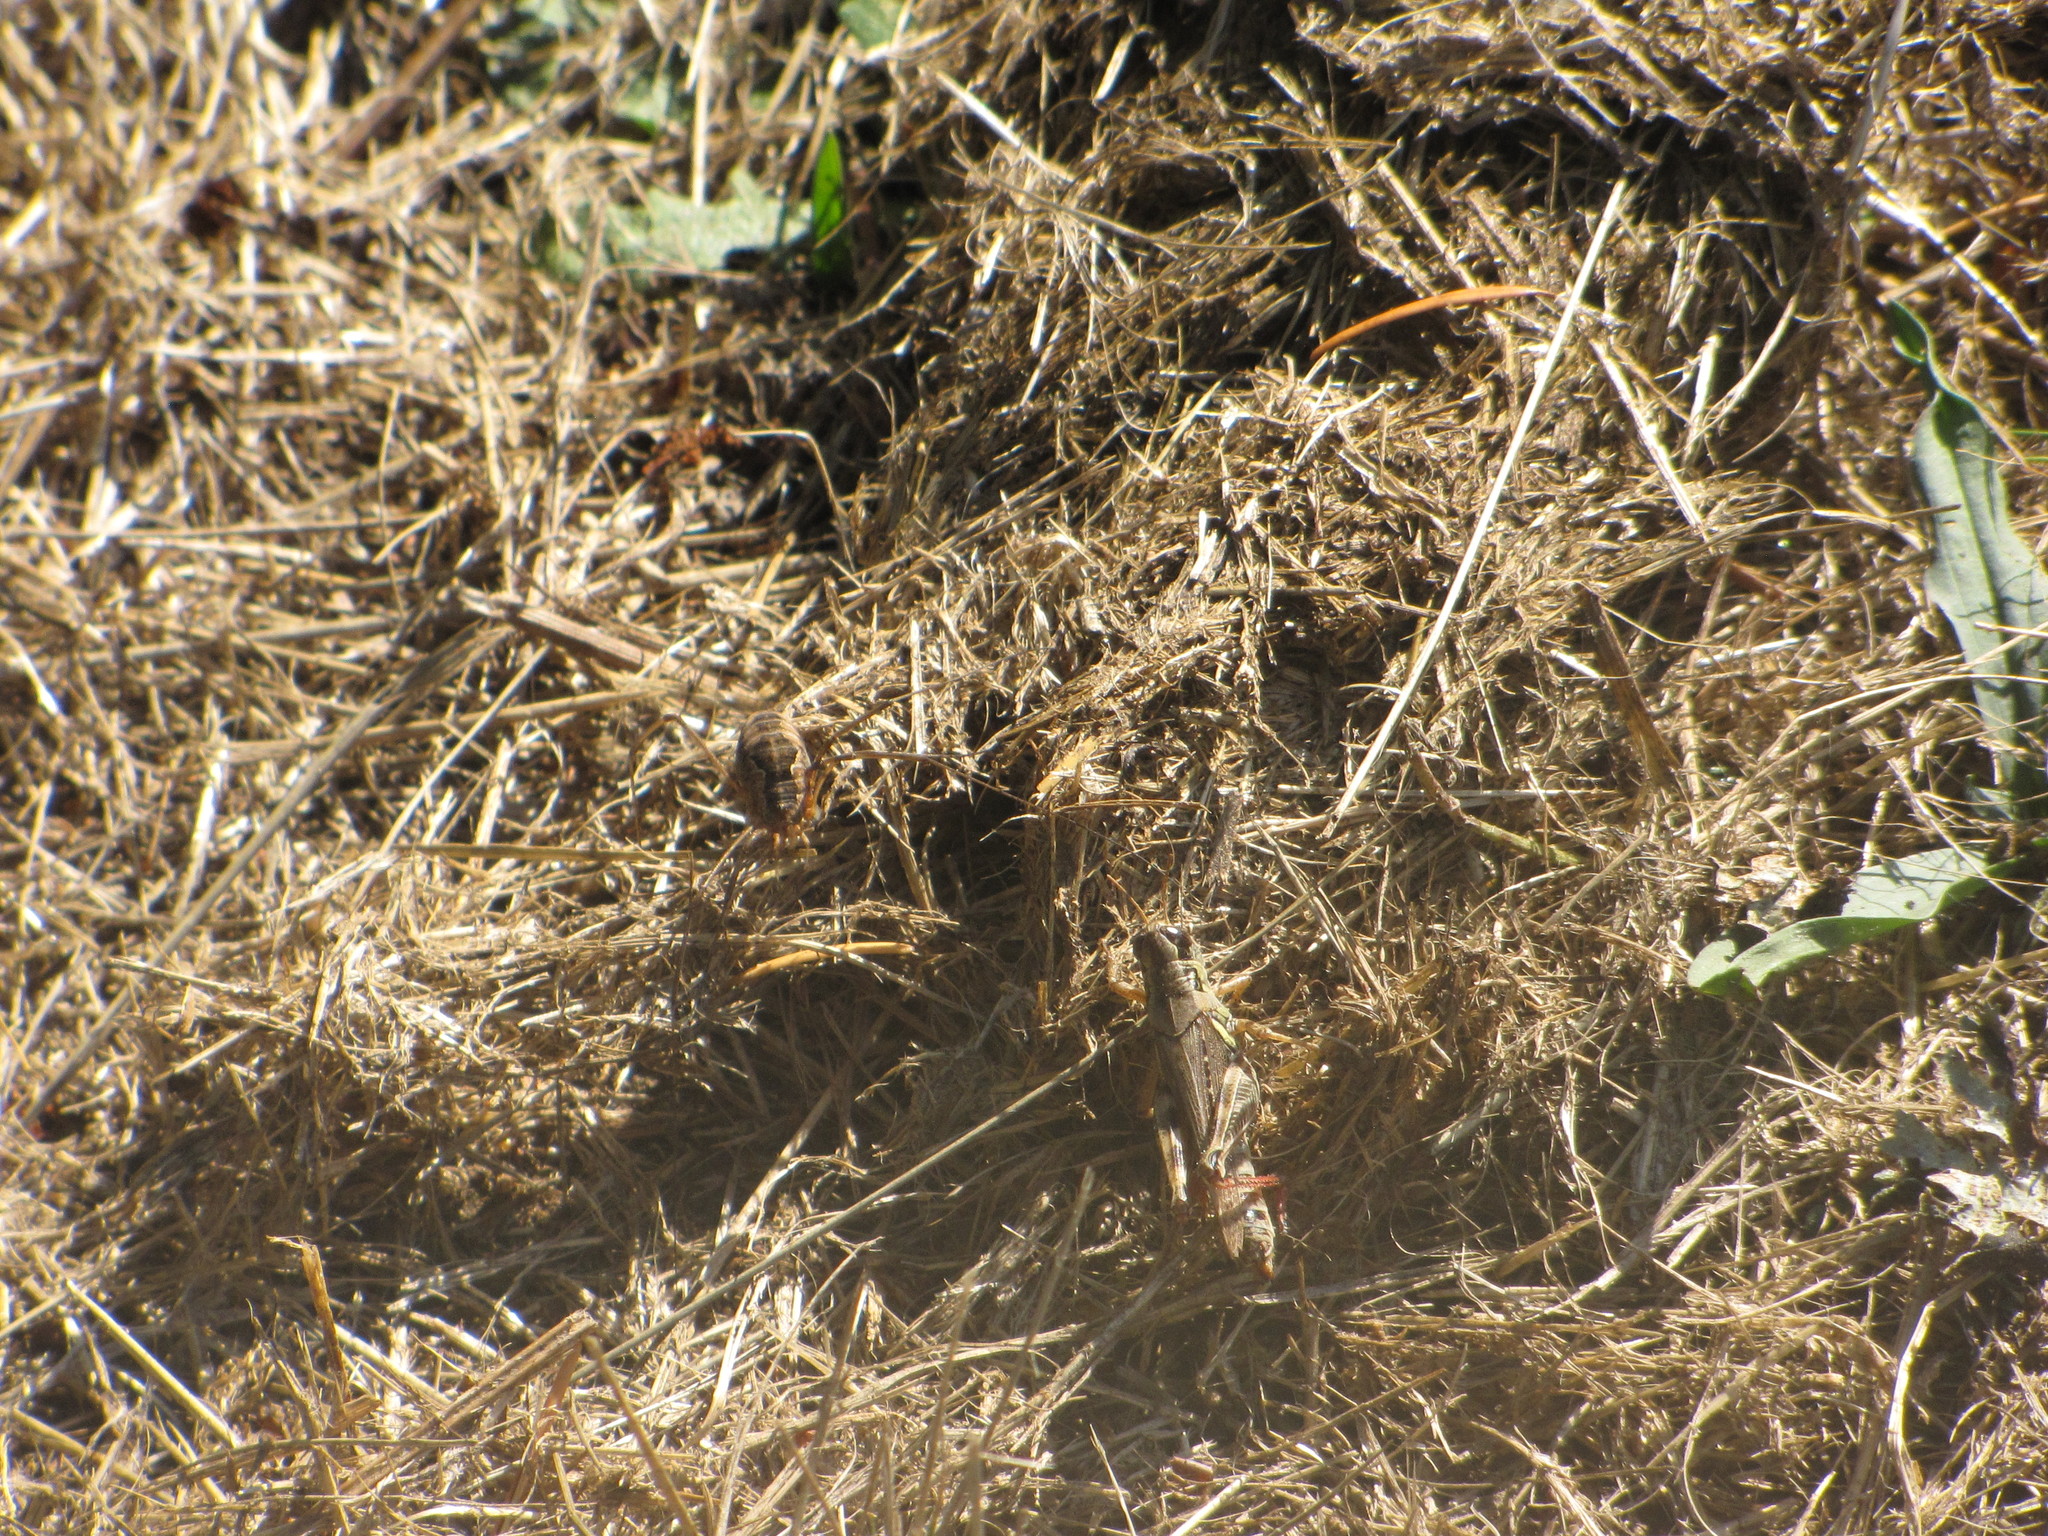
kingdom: Animalia
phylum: Arthropoda
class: Arachnida
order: Opiliones
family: Phalangiidae
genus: Phalangium
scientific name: Phalangium opilio
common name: Daddy longleg
